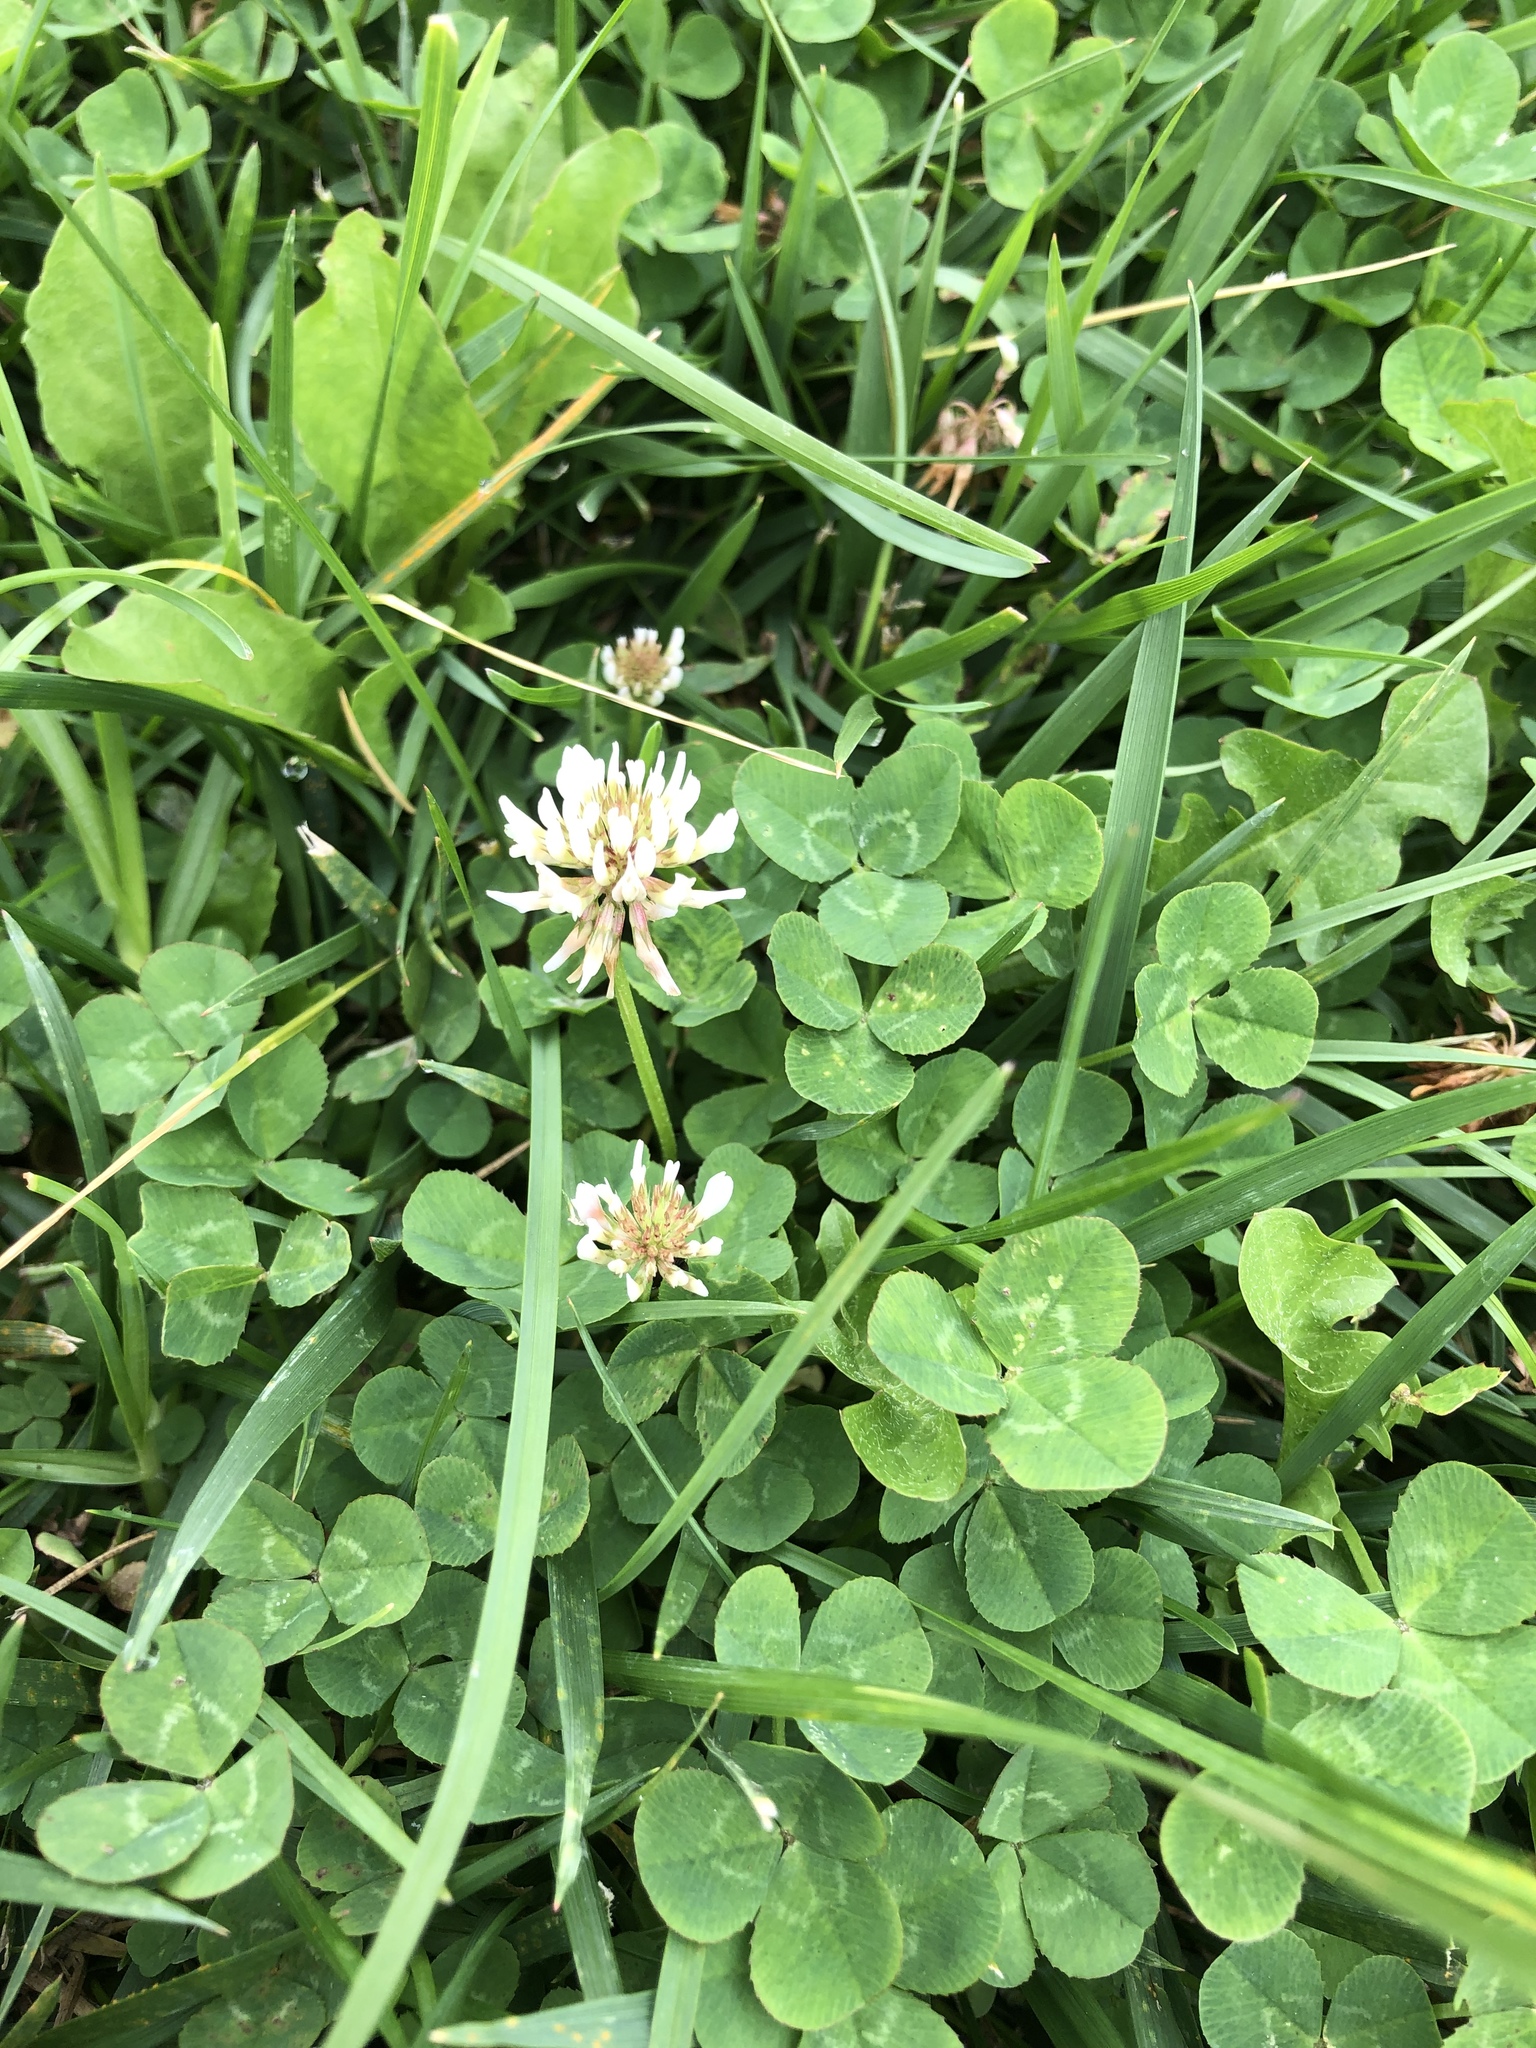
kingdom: Plantae
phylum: Tracheophyta
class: Magnoliopsida
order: Fabales
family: Fabaceae
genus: Trifolium
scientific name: Trifolium repens
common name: White clover
